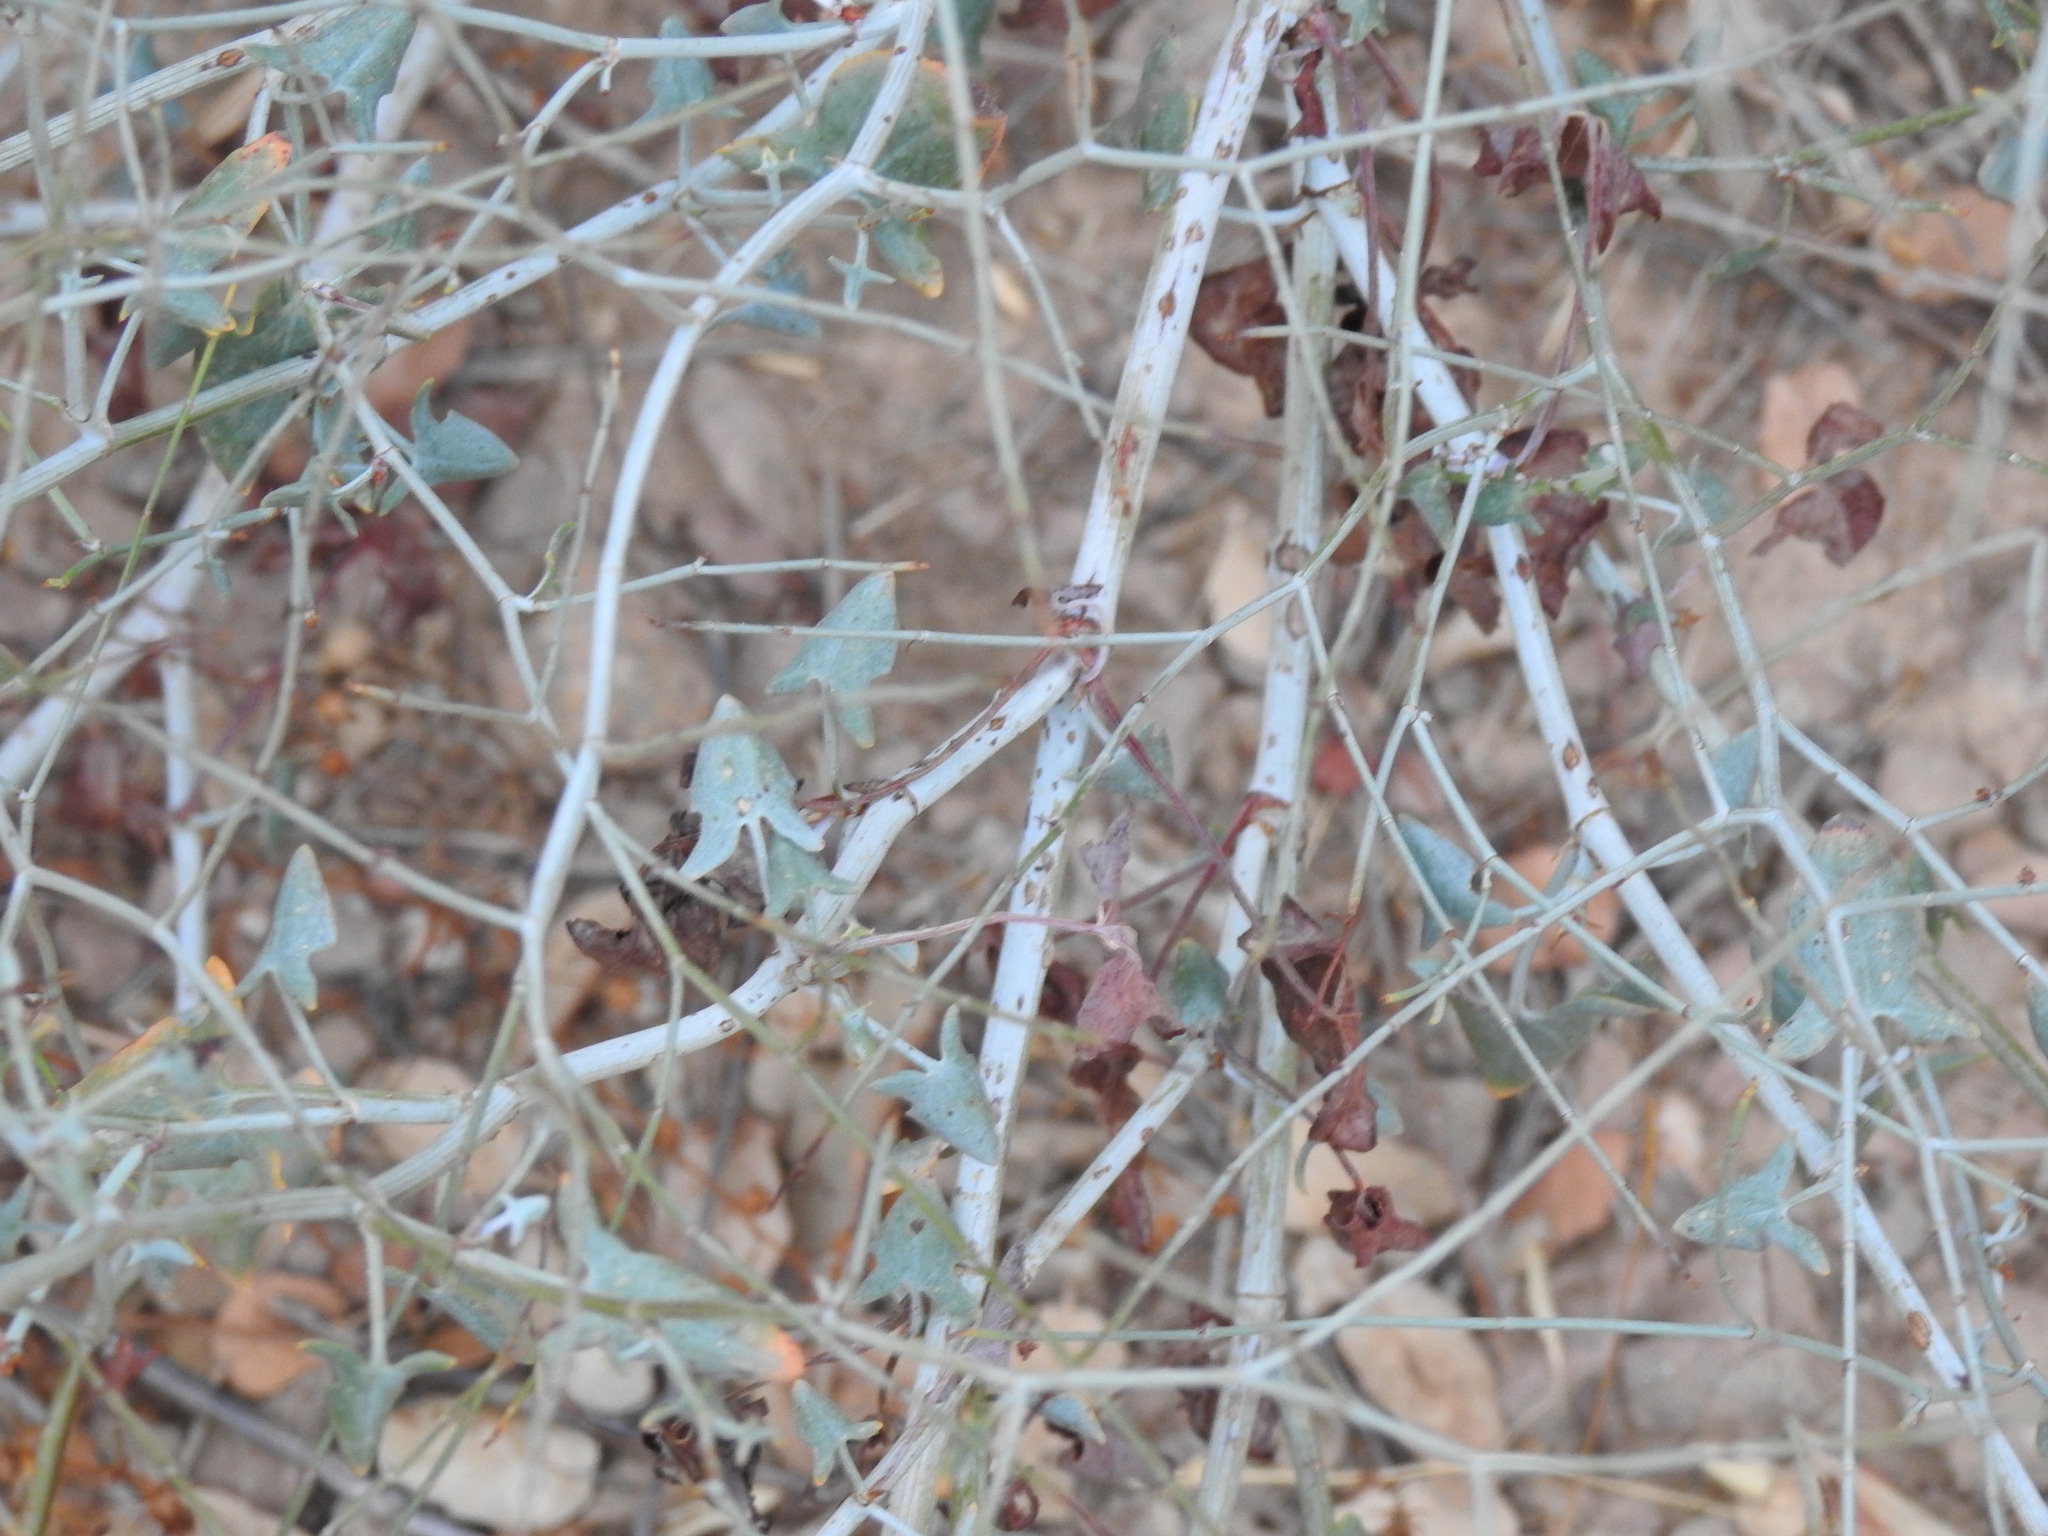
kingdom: Plantae
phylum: Tracheophyta
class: Magnoliopsida
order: Caryophyllales
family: Polygonaceae
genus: Rumex
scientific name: Rumex induratus
